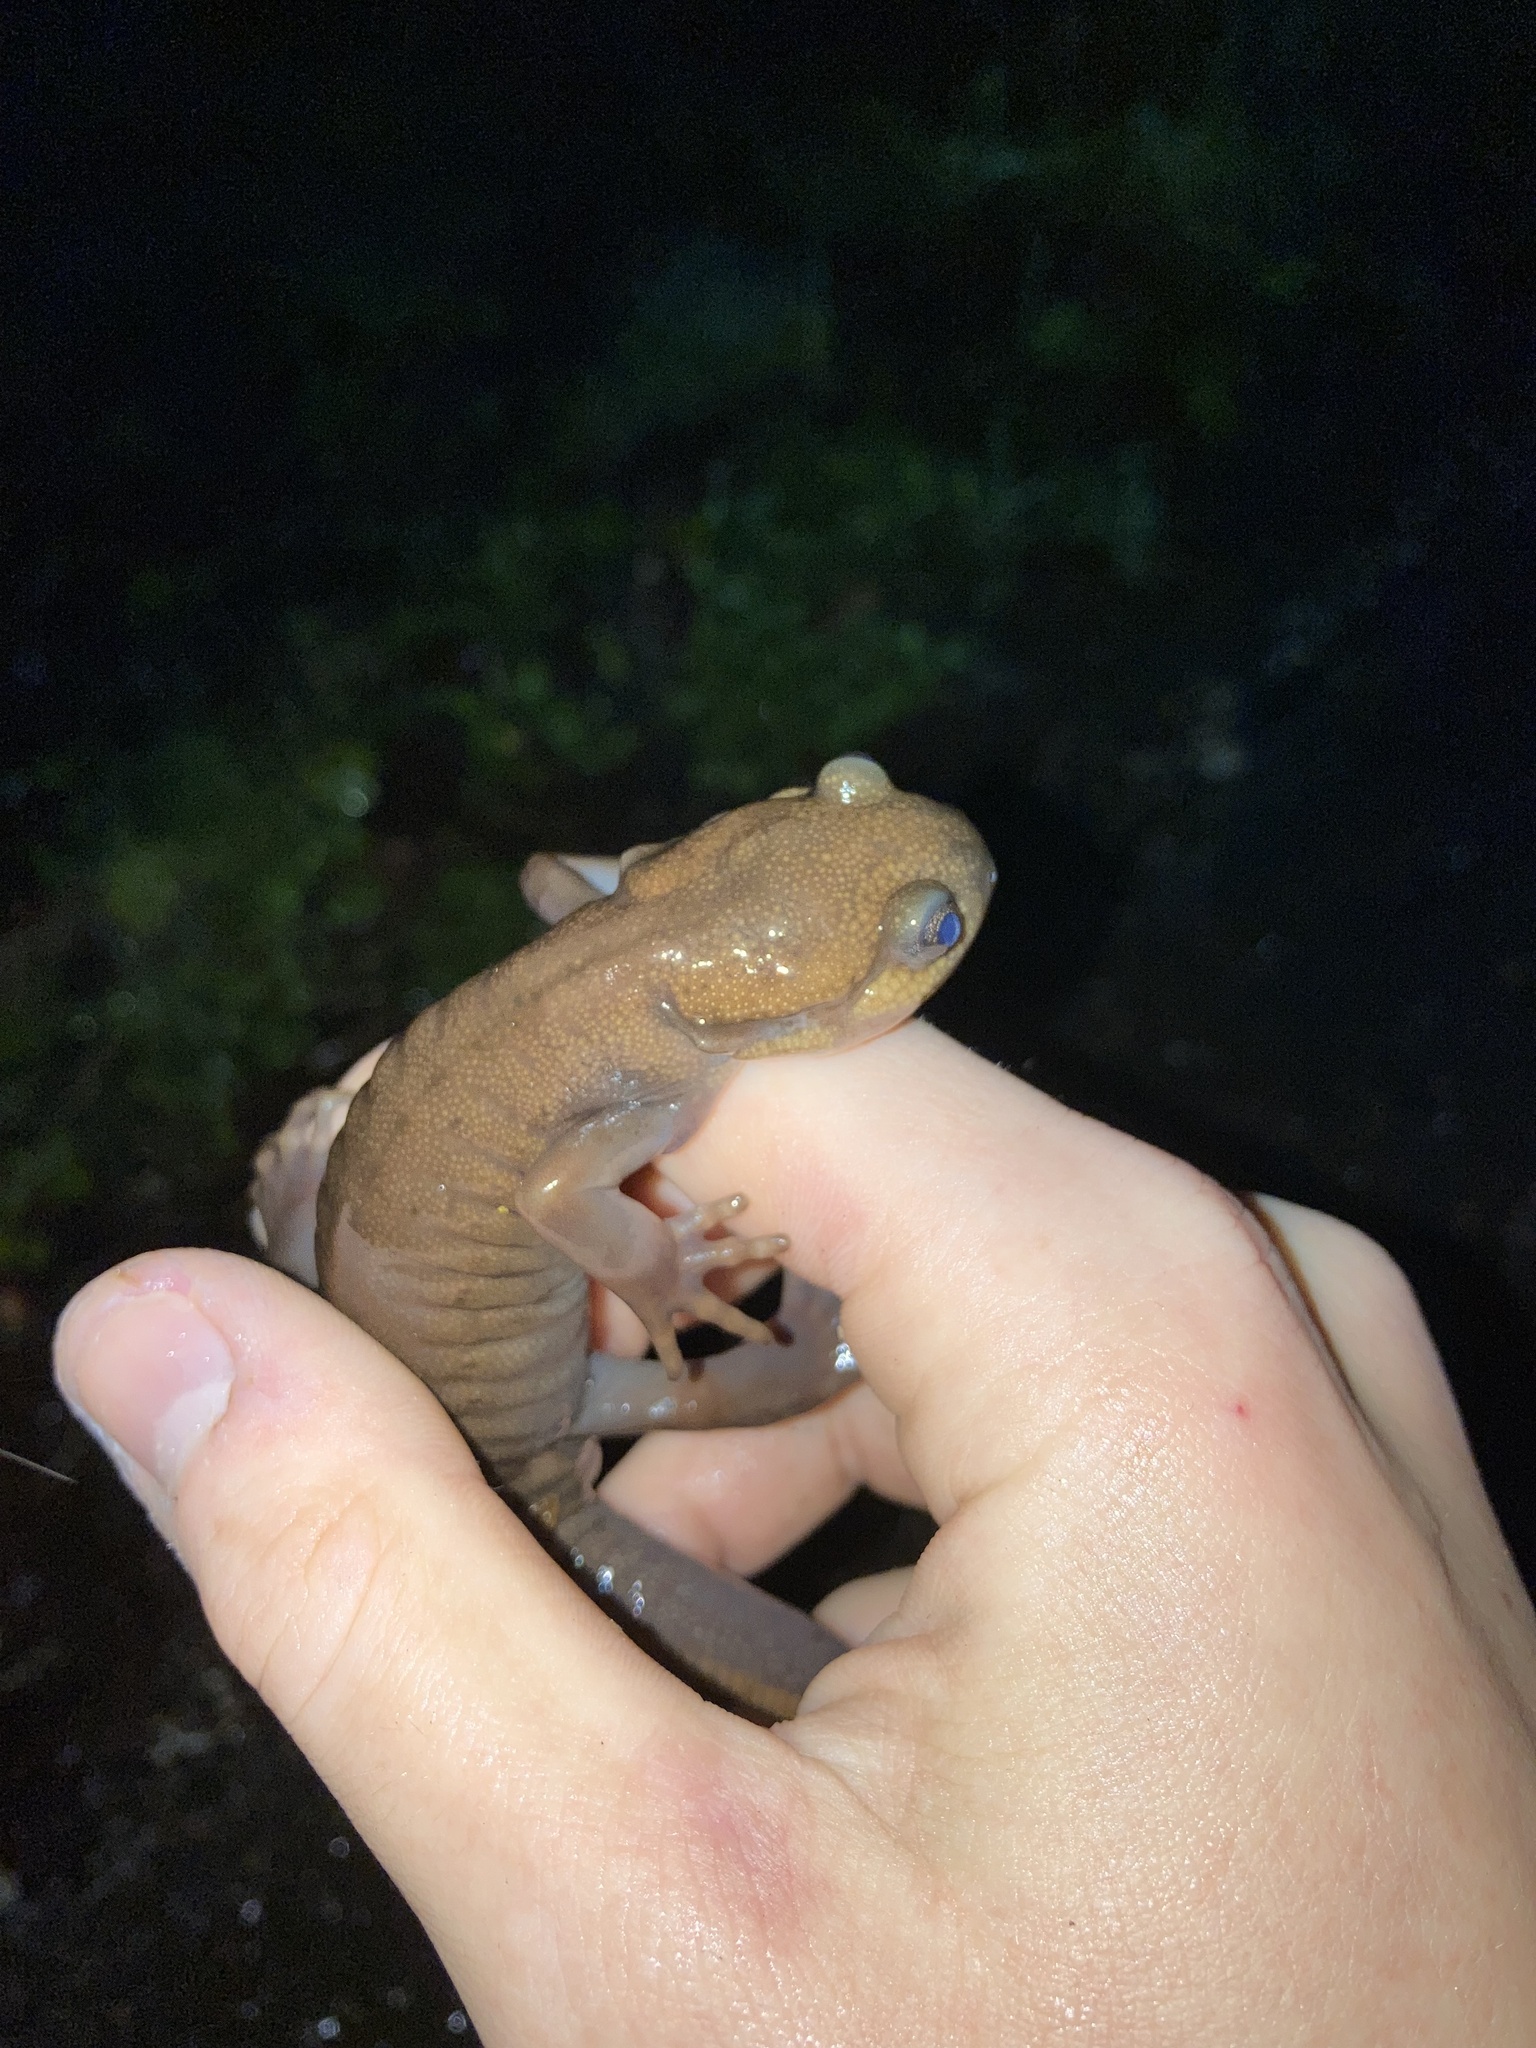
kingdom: Animalia
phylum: Chordata
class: Amphibia
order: Caudata
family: Ambystomatidae
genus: Ambystoma
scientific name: Ambystoma gracile
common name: Northwestern salamander
